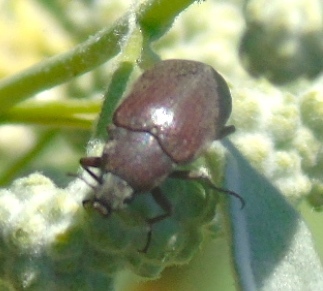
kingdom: Animalia
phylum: Arthropoda
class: Insecta
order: Coleoptera
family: Tenebrionidae
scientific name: Tenebrionidae
